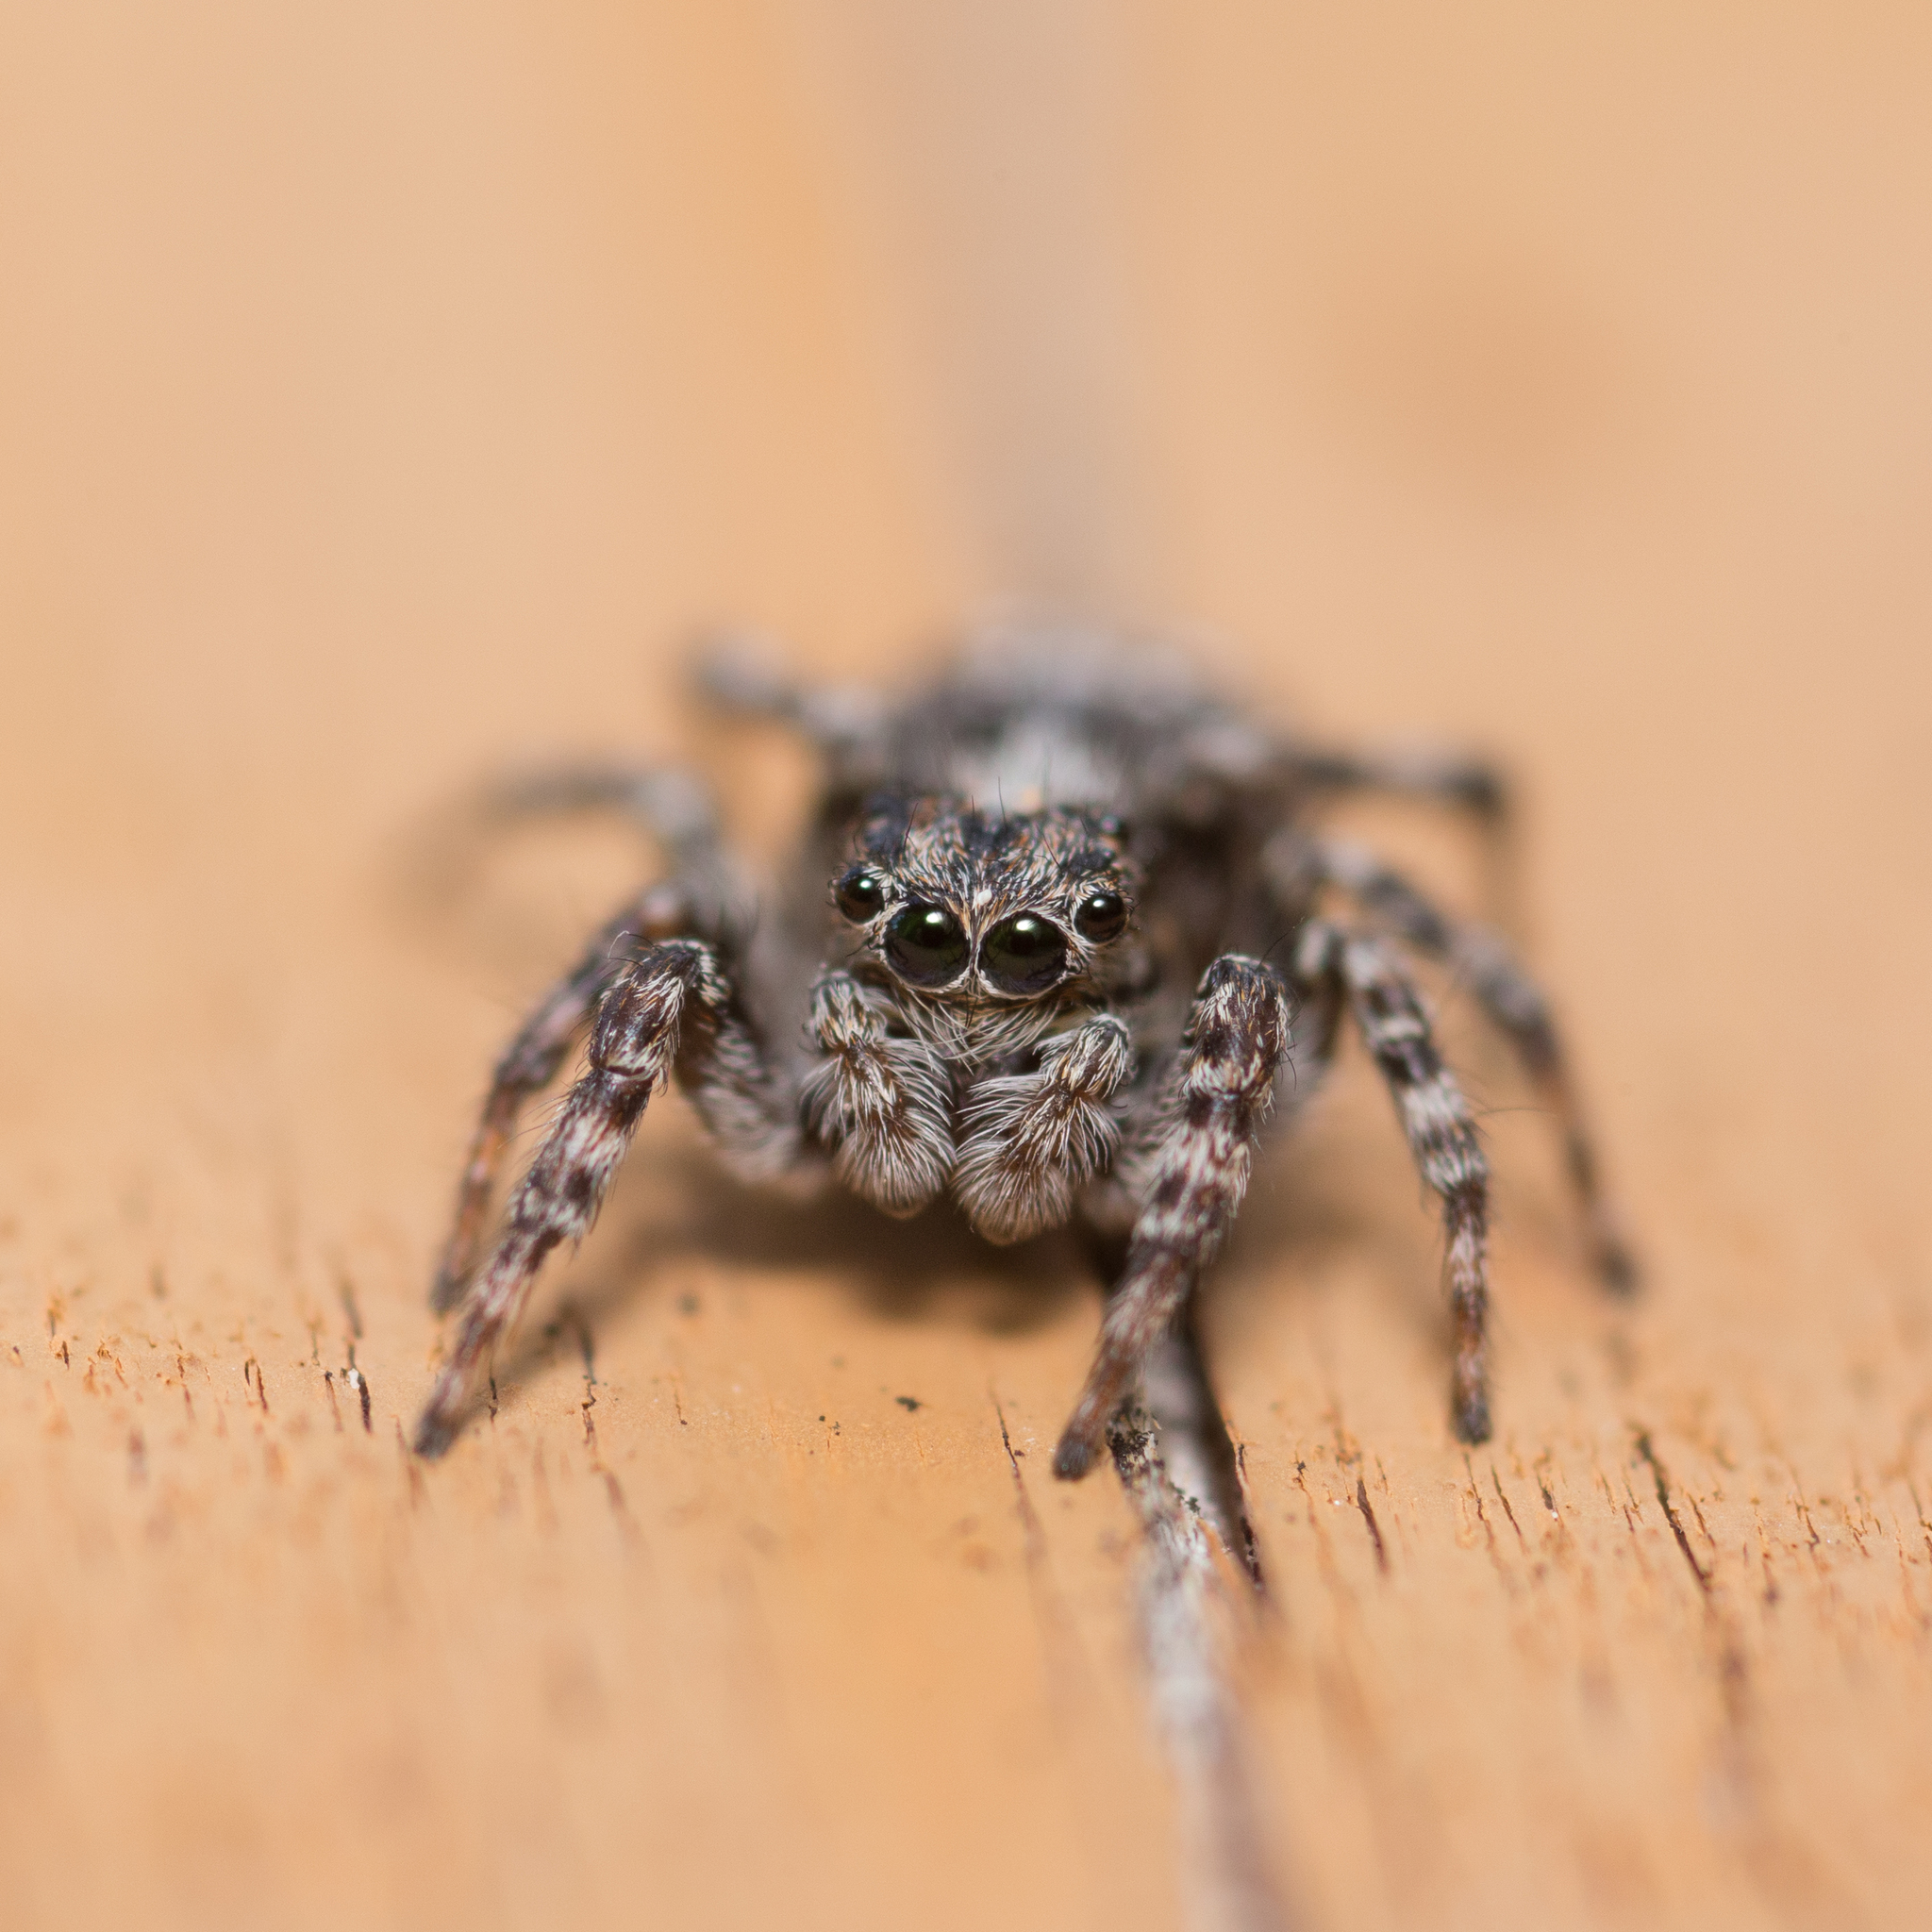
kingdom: Animalia
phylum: Arthropoda
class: Arachnida
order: Araneae
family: Salticidae
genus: Attulus
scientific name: Attulus terebratus
